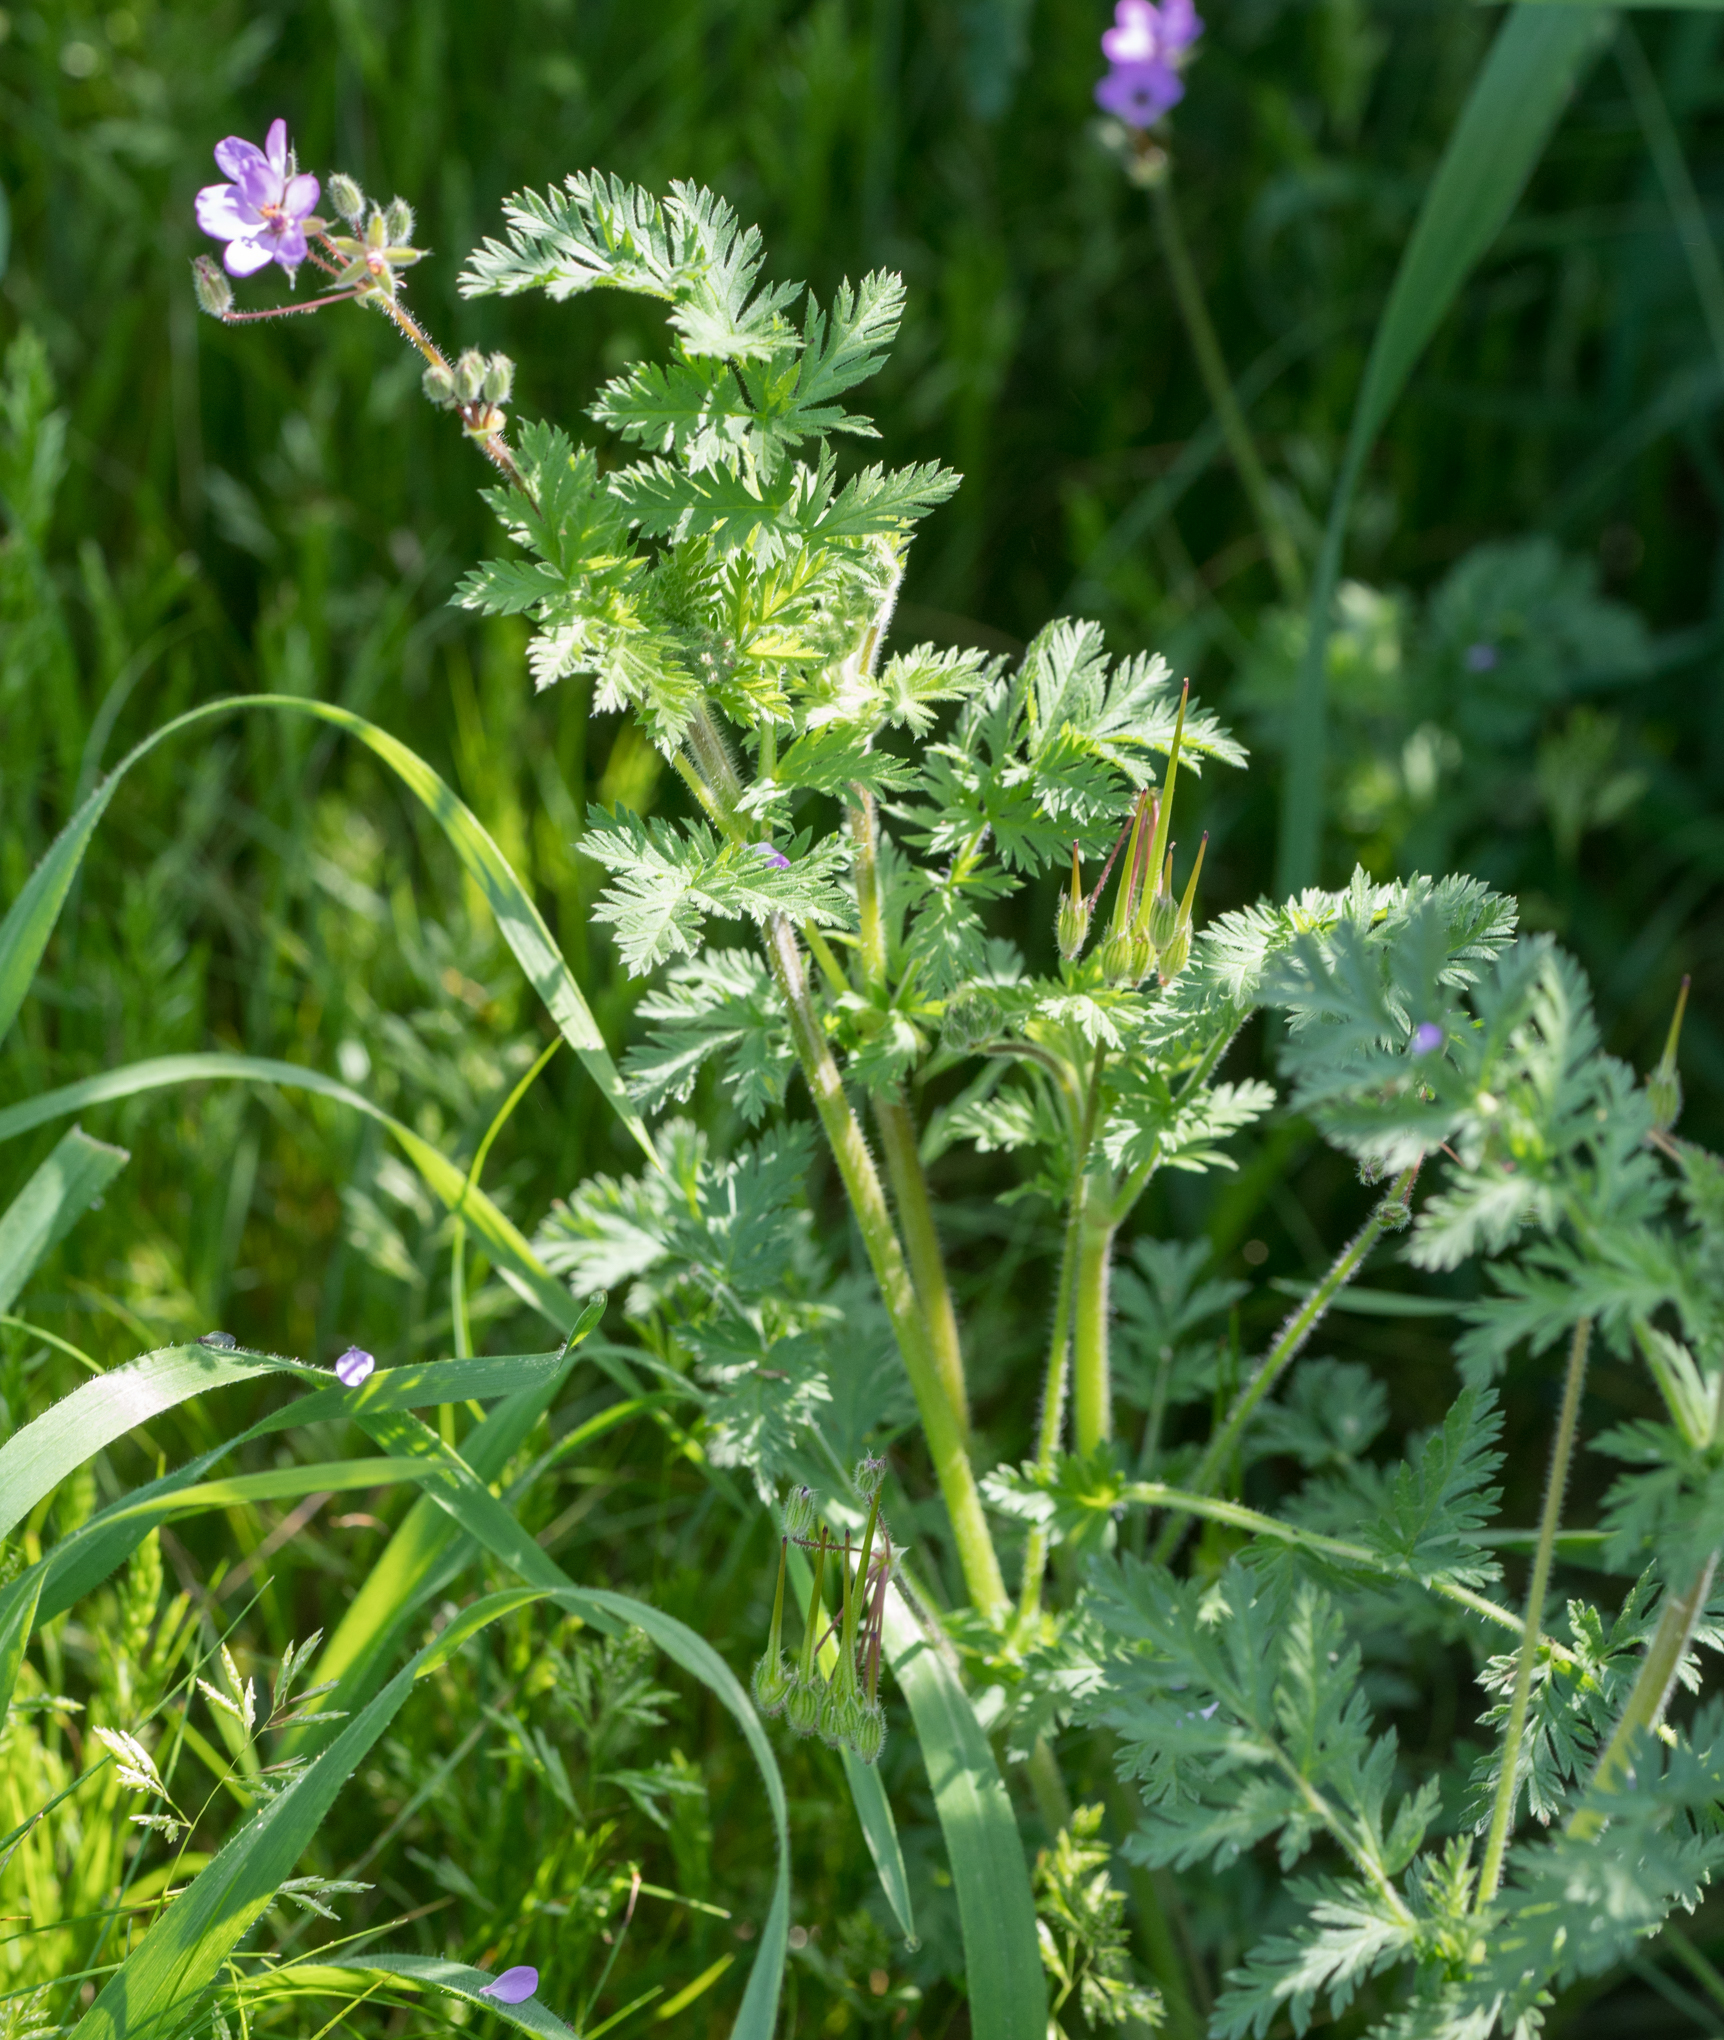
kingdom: Plantae
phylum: Tracheophyta
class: Magnoliopsida
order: Geraniales
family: Geraniaceae
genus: Erodium
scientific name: Erodium cicutarium
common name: Common stork's-bill
